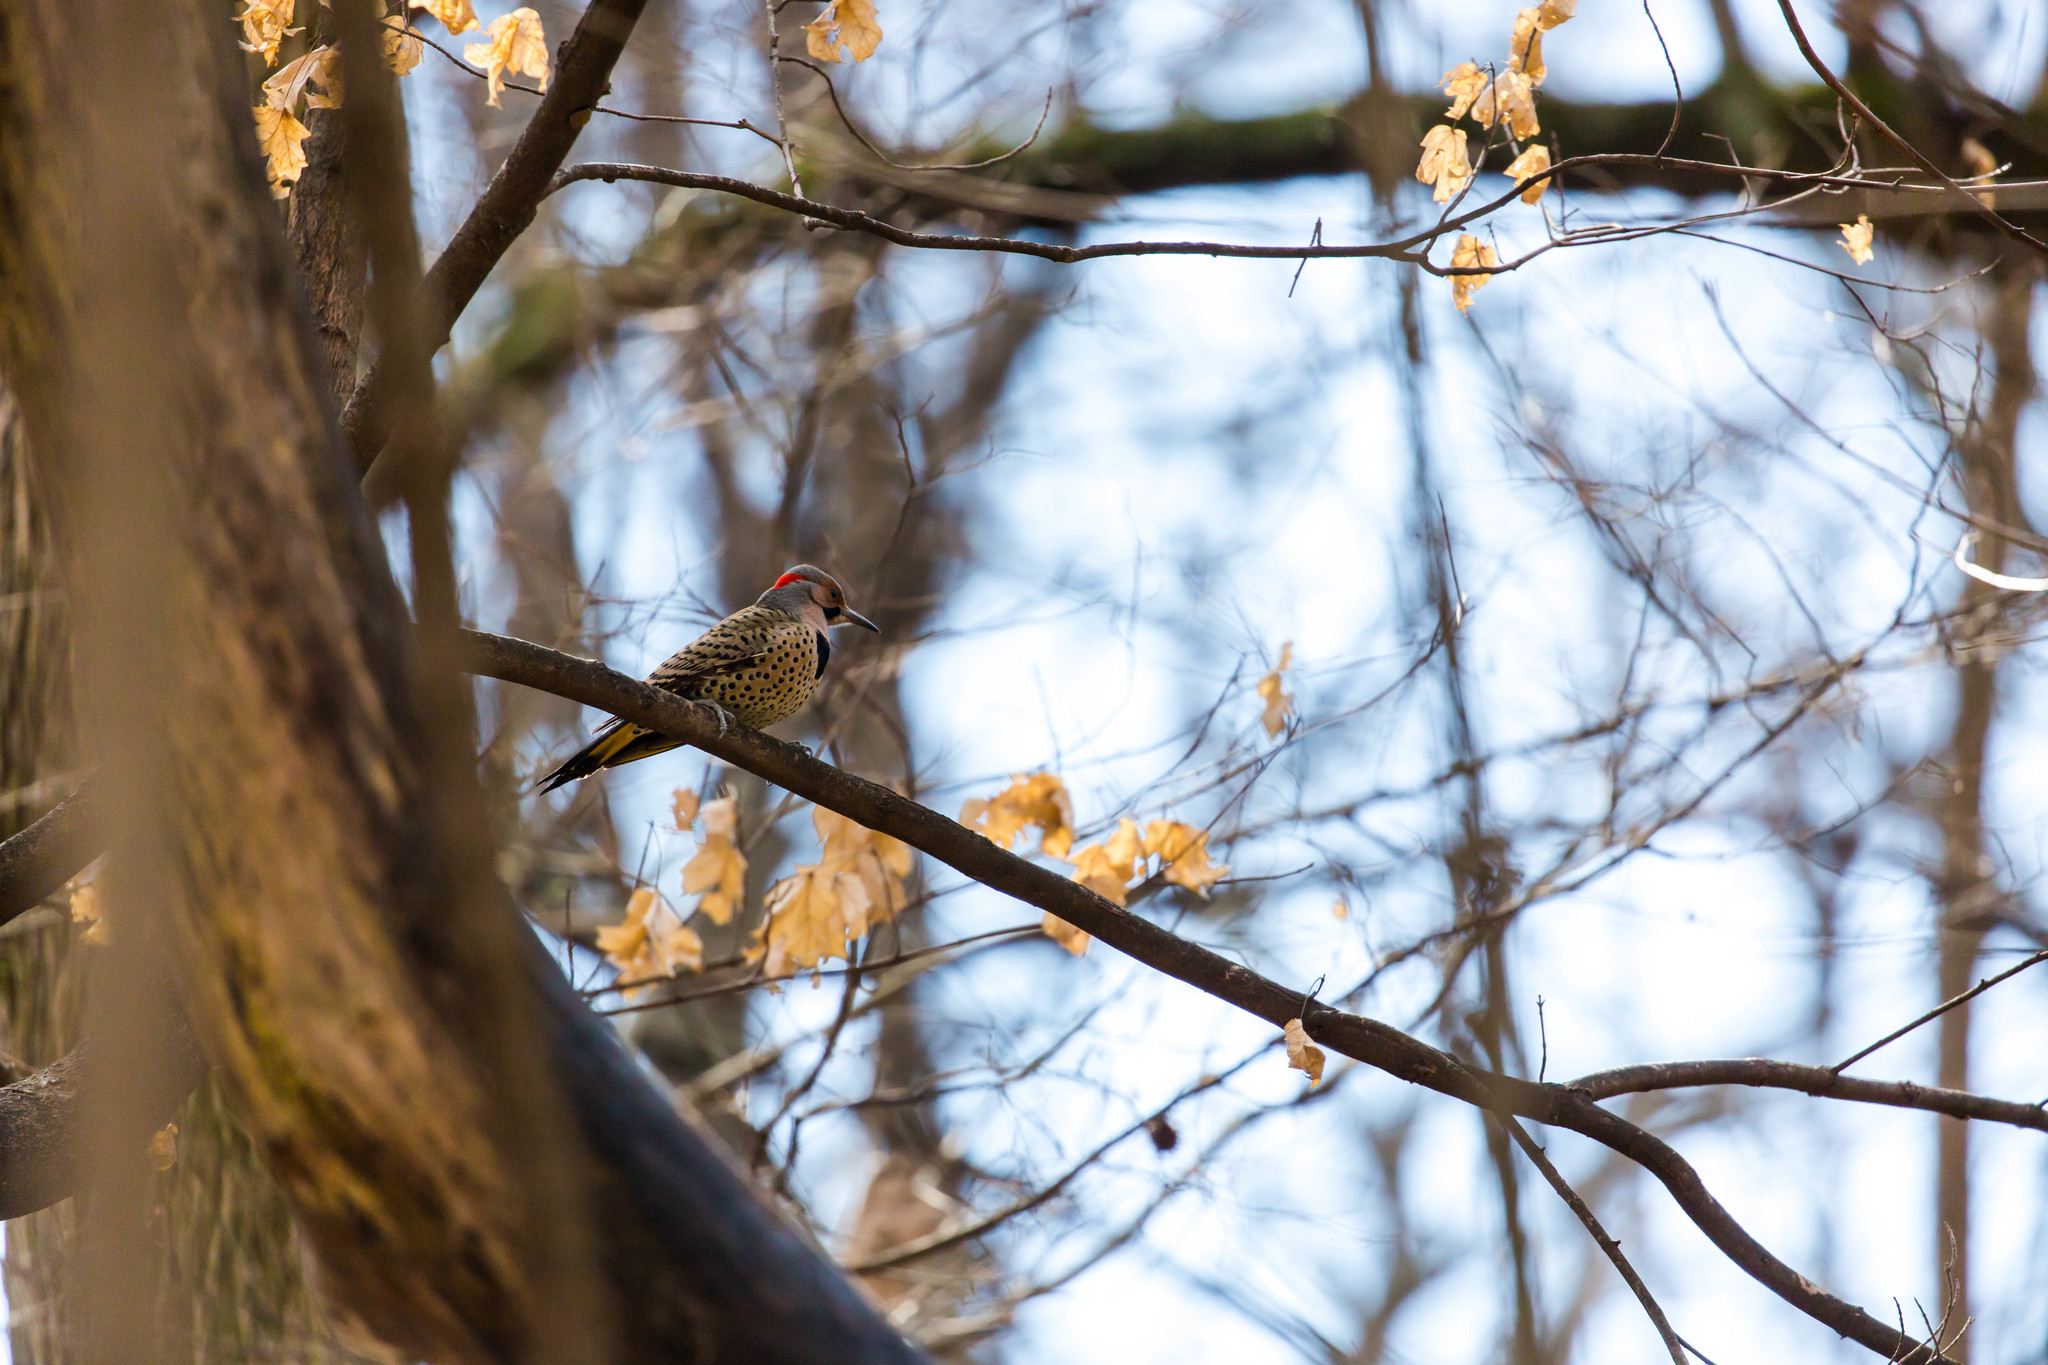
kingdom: Animalia
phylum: Chordata
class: Aves
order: Piciformes
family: Picidae
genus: Colaptes
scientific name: Colaptes auratus
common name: Northern flicker
